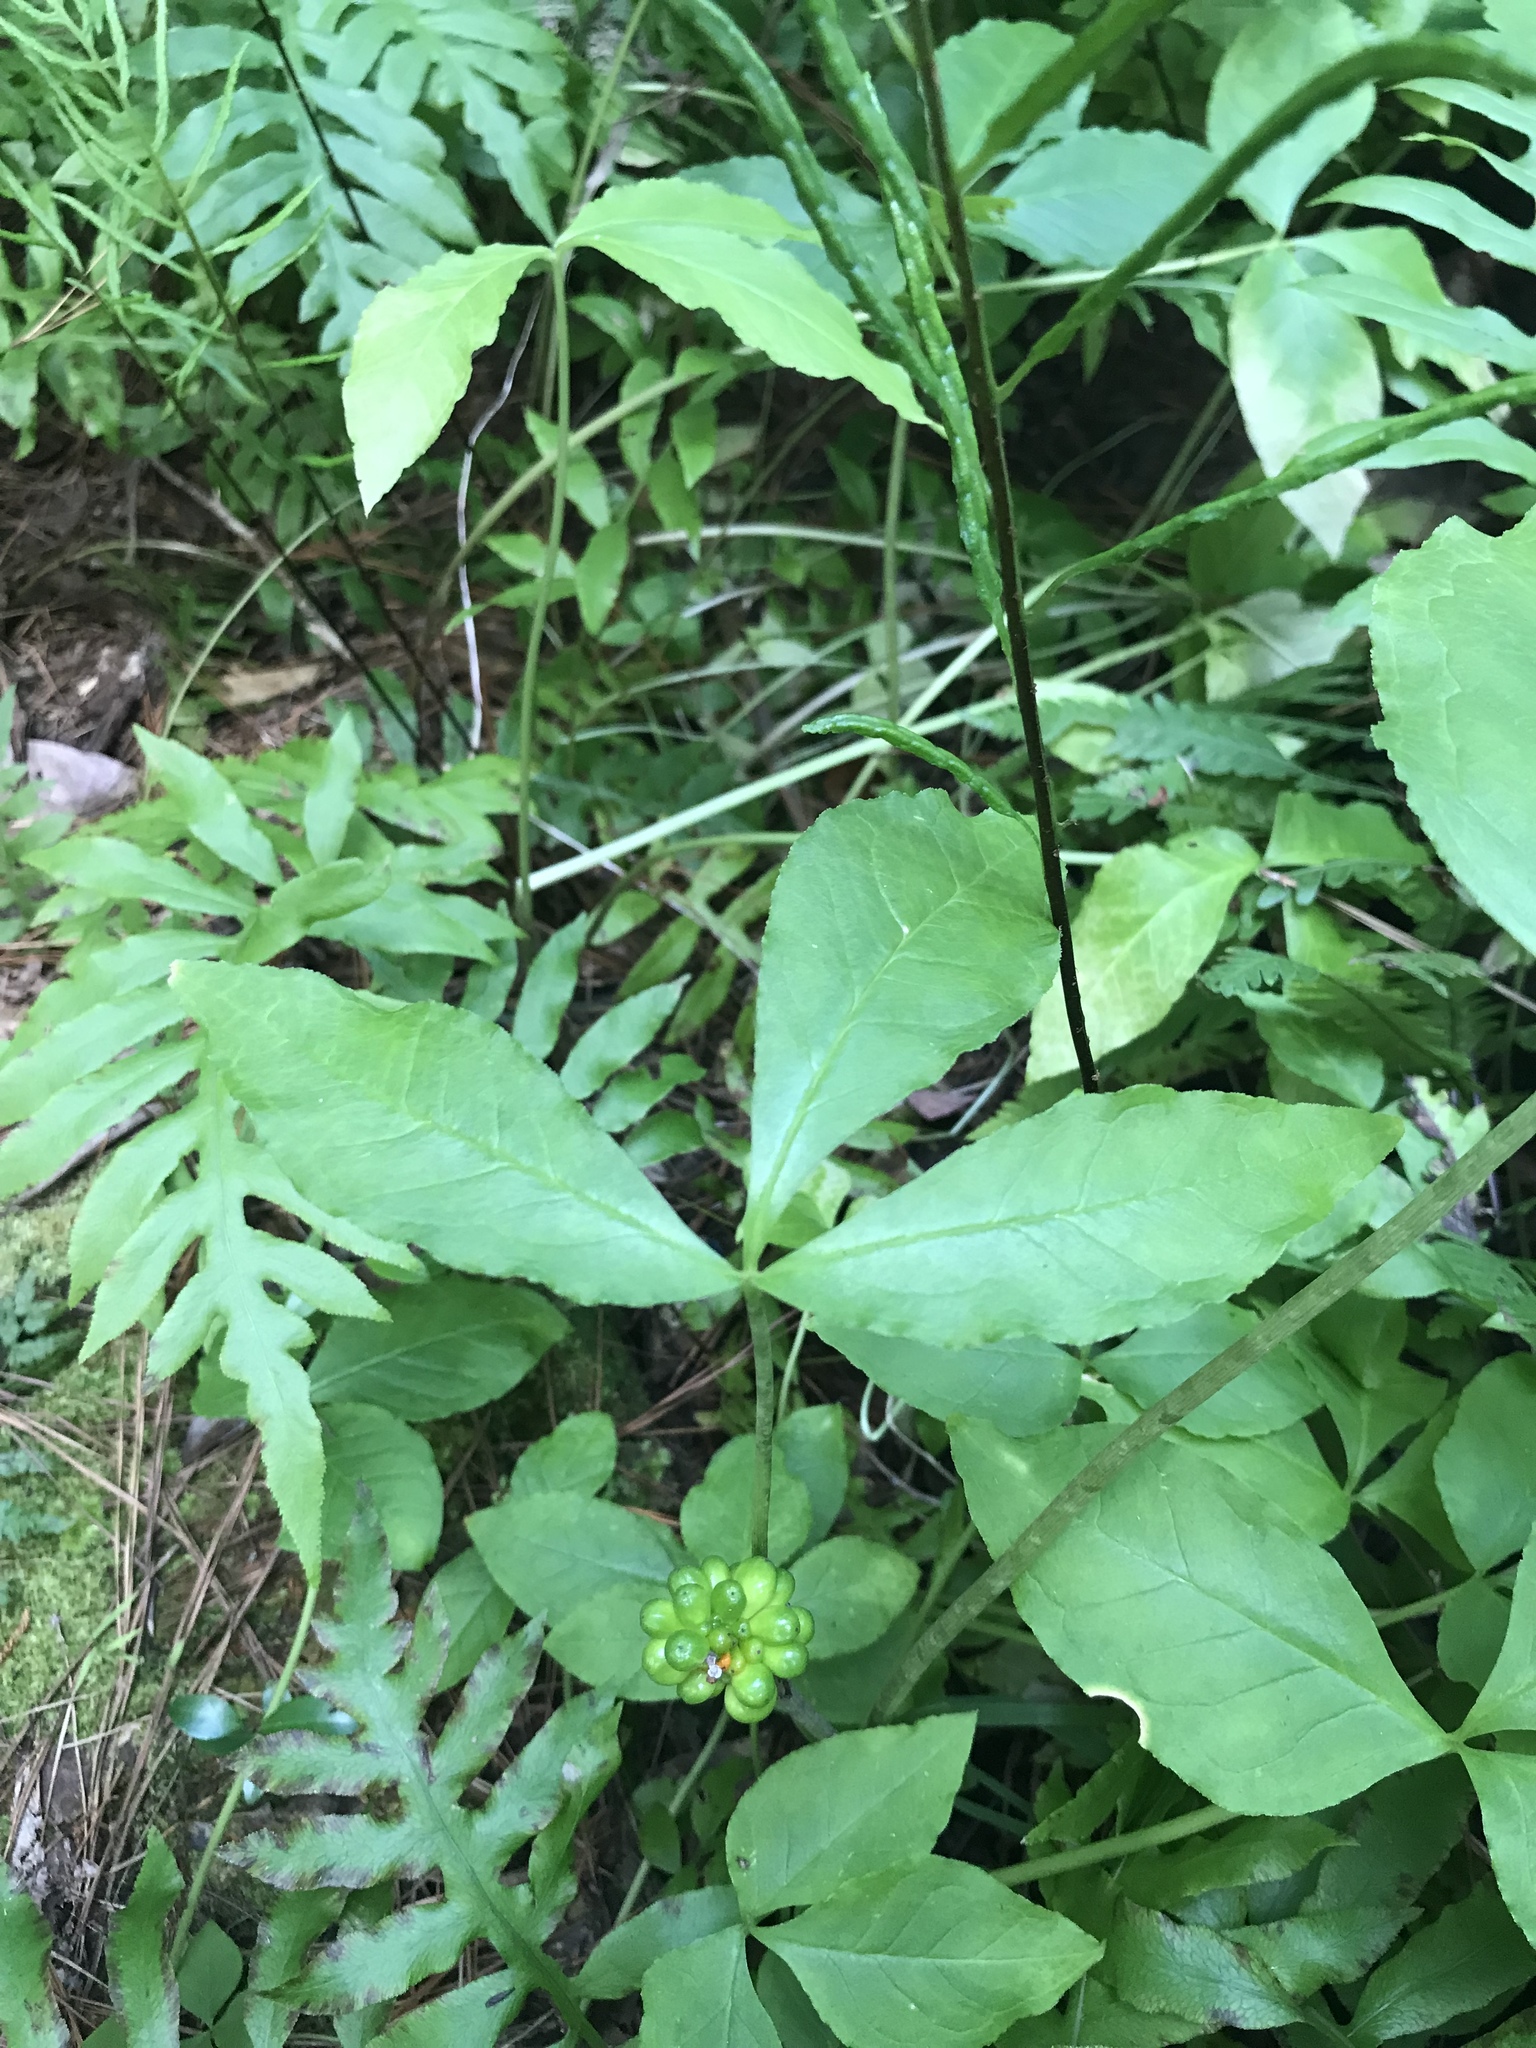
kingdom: Plantae
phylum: Tracheophyta
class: Liliopsida
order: Alismatales
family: Araceae
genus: Arisaema
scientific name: Arisaema triphyllum
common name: Jack-in-the-pulpit
